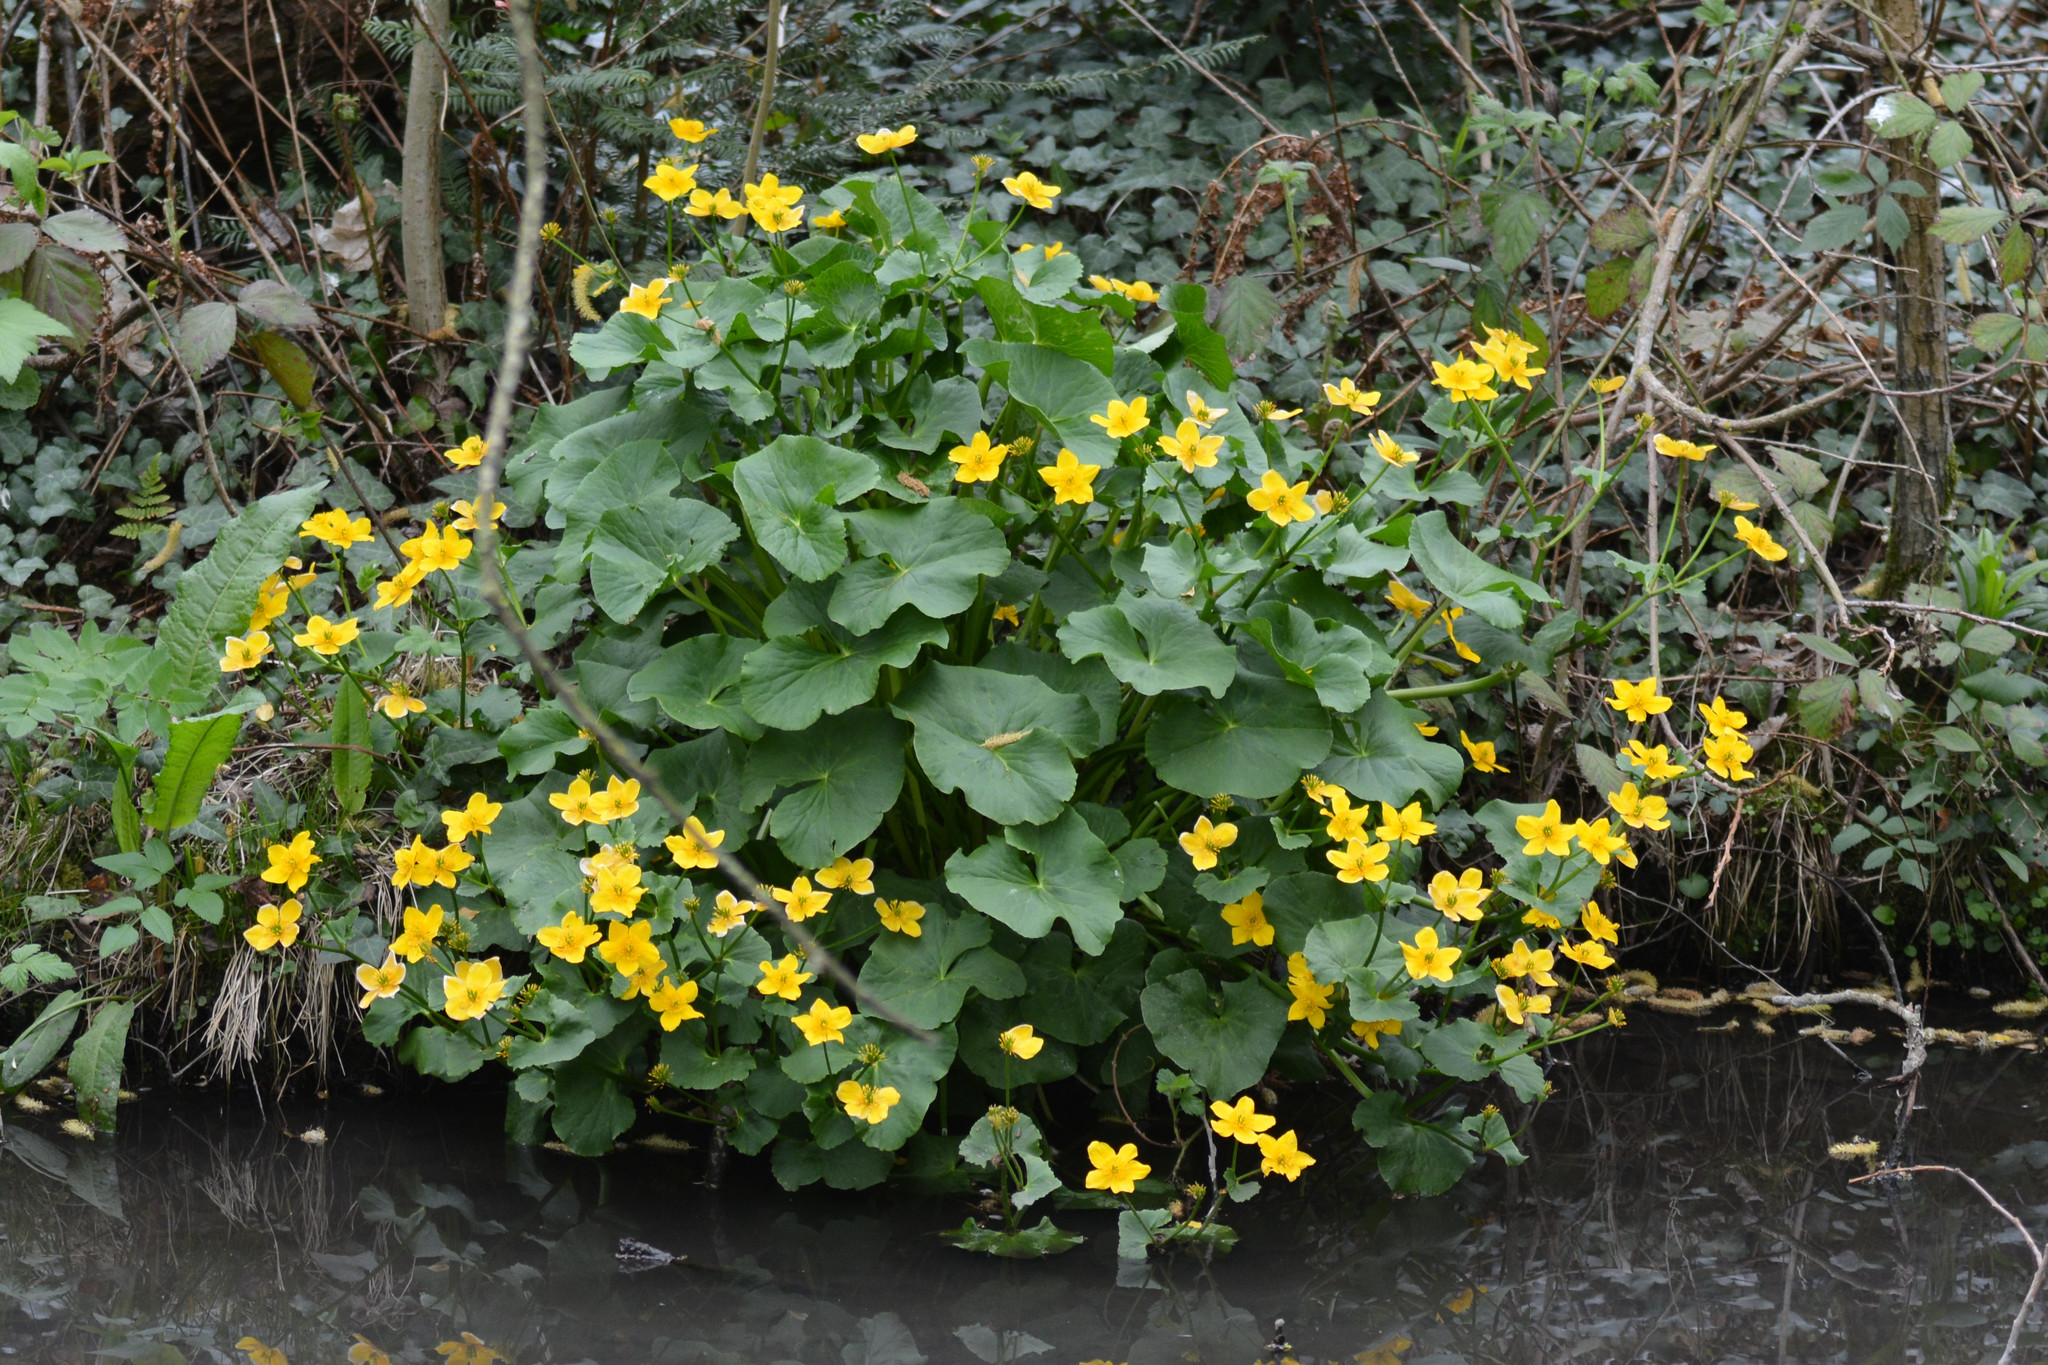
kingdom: Plantae
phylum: Tracheophyta
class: Magnoliopsida
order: Ranunculales
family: Ranunculaceae
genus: Caltha
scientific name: Caltha palustris
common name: Marsh marigold
